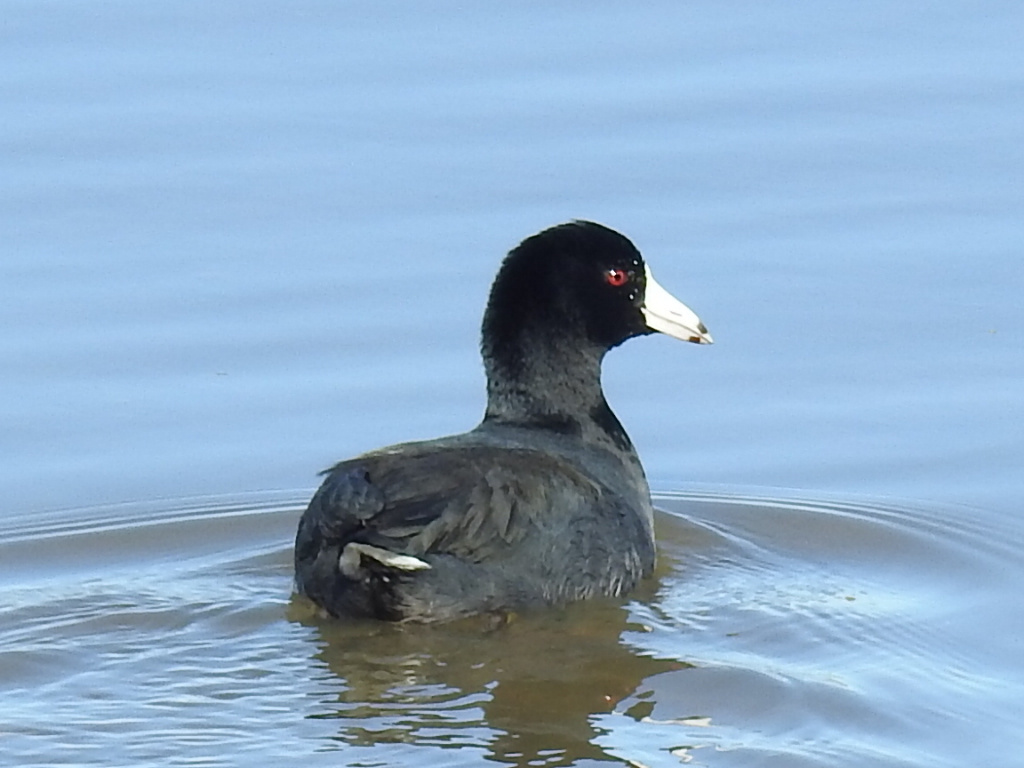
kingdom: Animalia
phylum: Chordata
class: Aves
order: Gruiformes
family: Rallidae
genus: Fulica
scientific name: Fulica americana
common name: American coot
